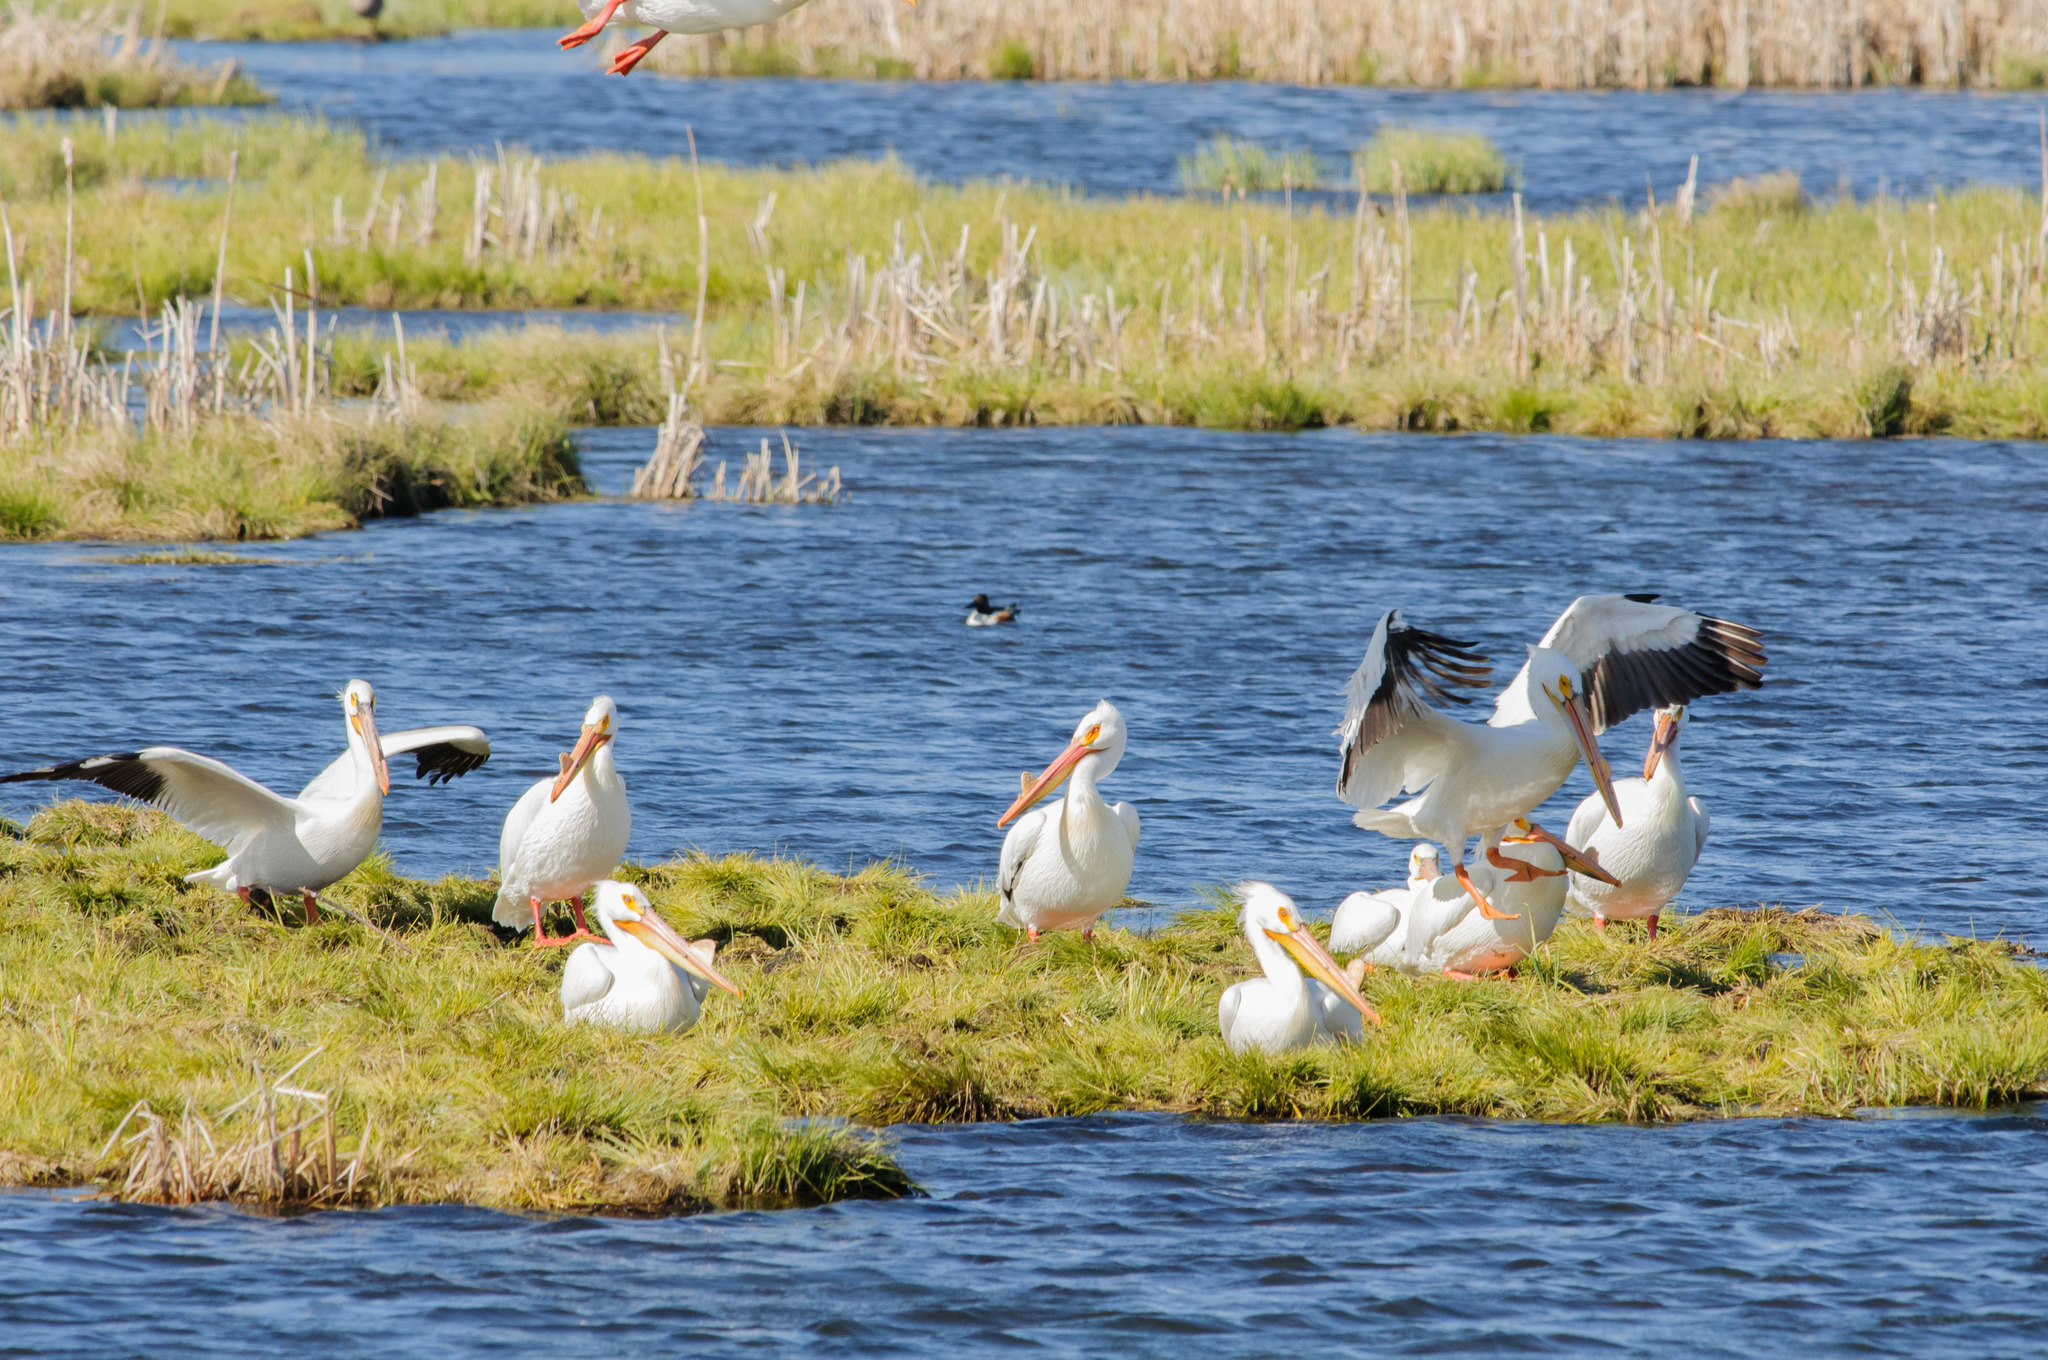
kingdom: Animalia
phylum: Chordata
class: Aves
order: Pelecaniformes
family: Pelecanidae
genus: Pelecanus
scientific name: Pelecanus erythrorhynchos
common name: American white pelican
